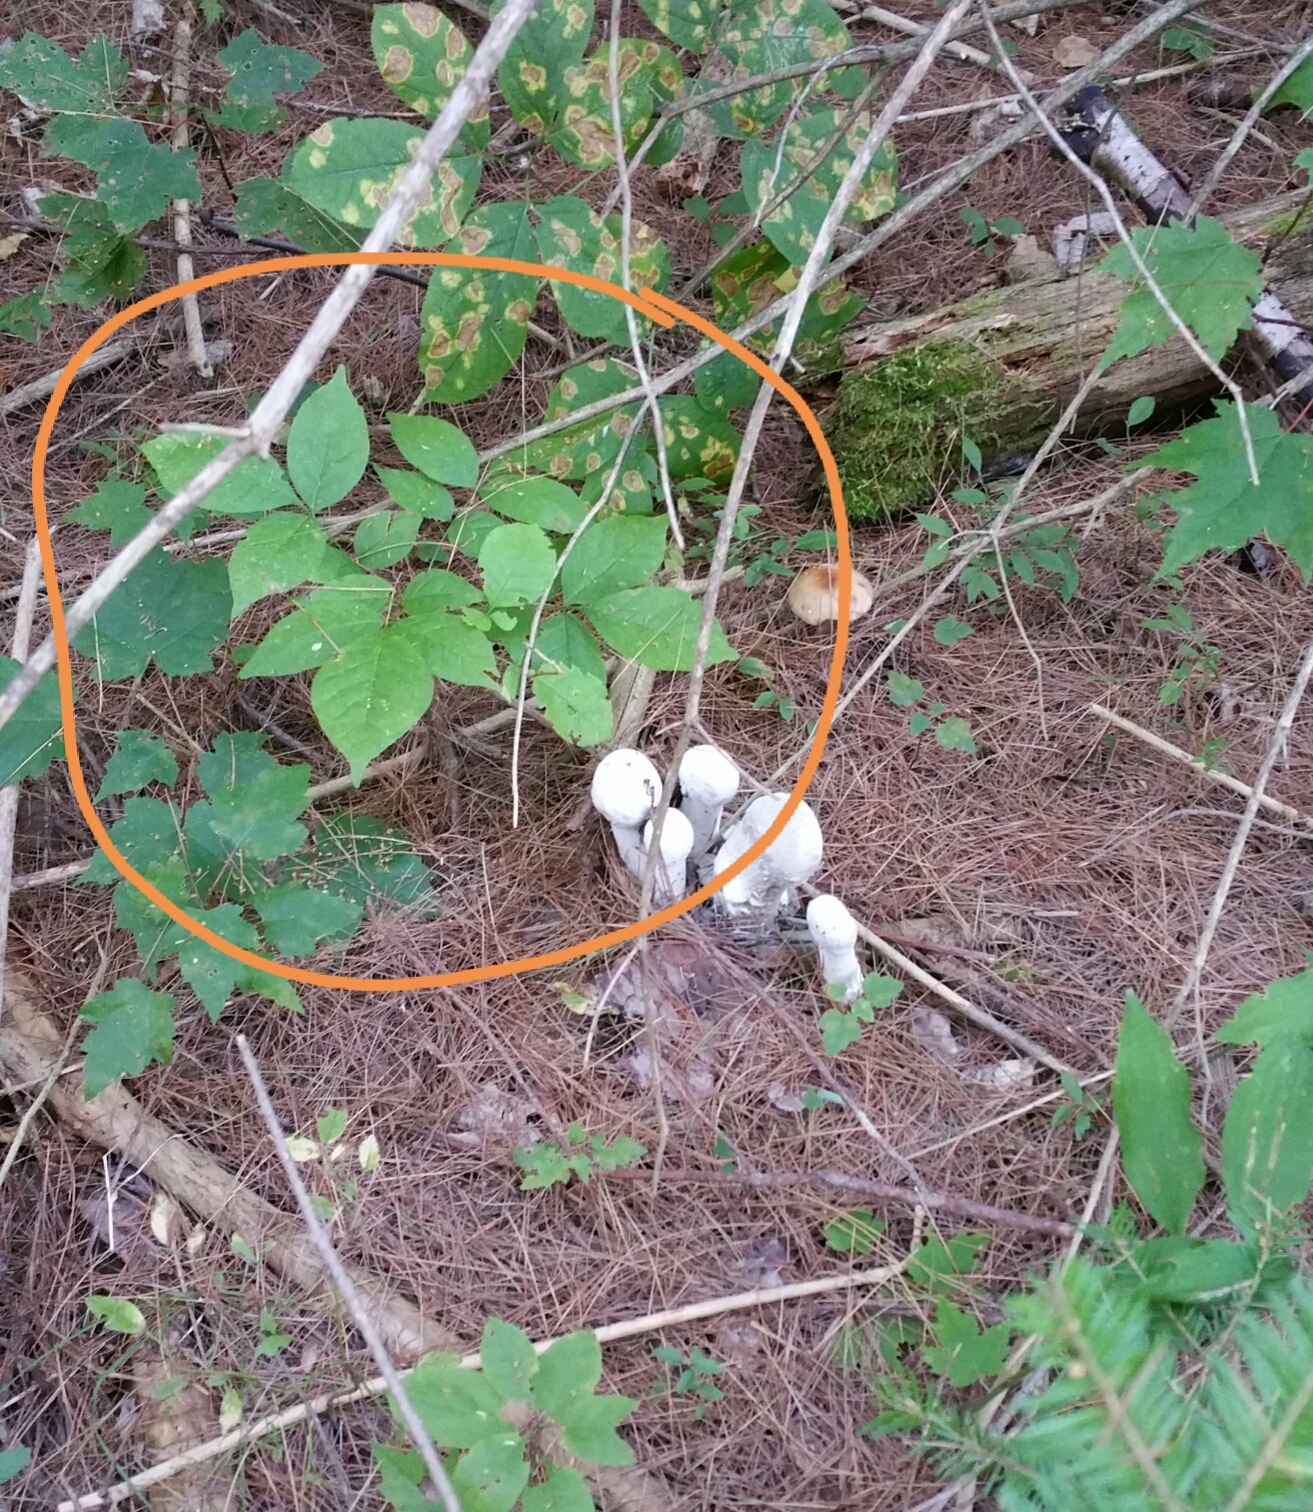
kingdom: Plantae
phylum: Tracheophyta
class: Magnoliopsida
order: Apiales
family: Araliaceae
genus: Aralia
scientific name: Aralia nudicaulis
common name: Wild sarsaparilla
